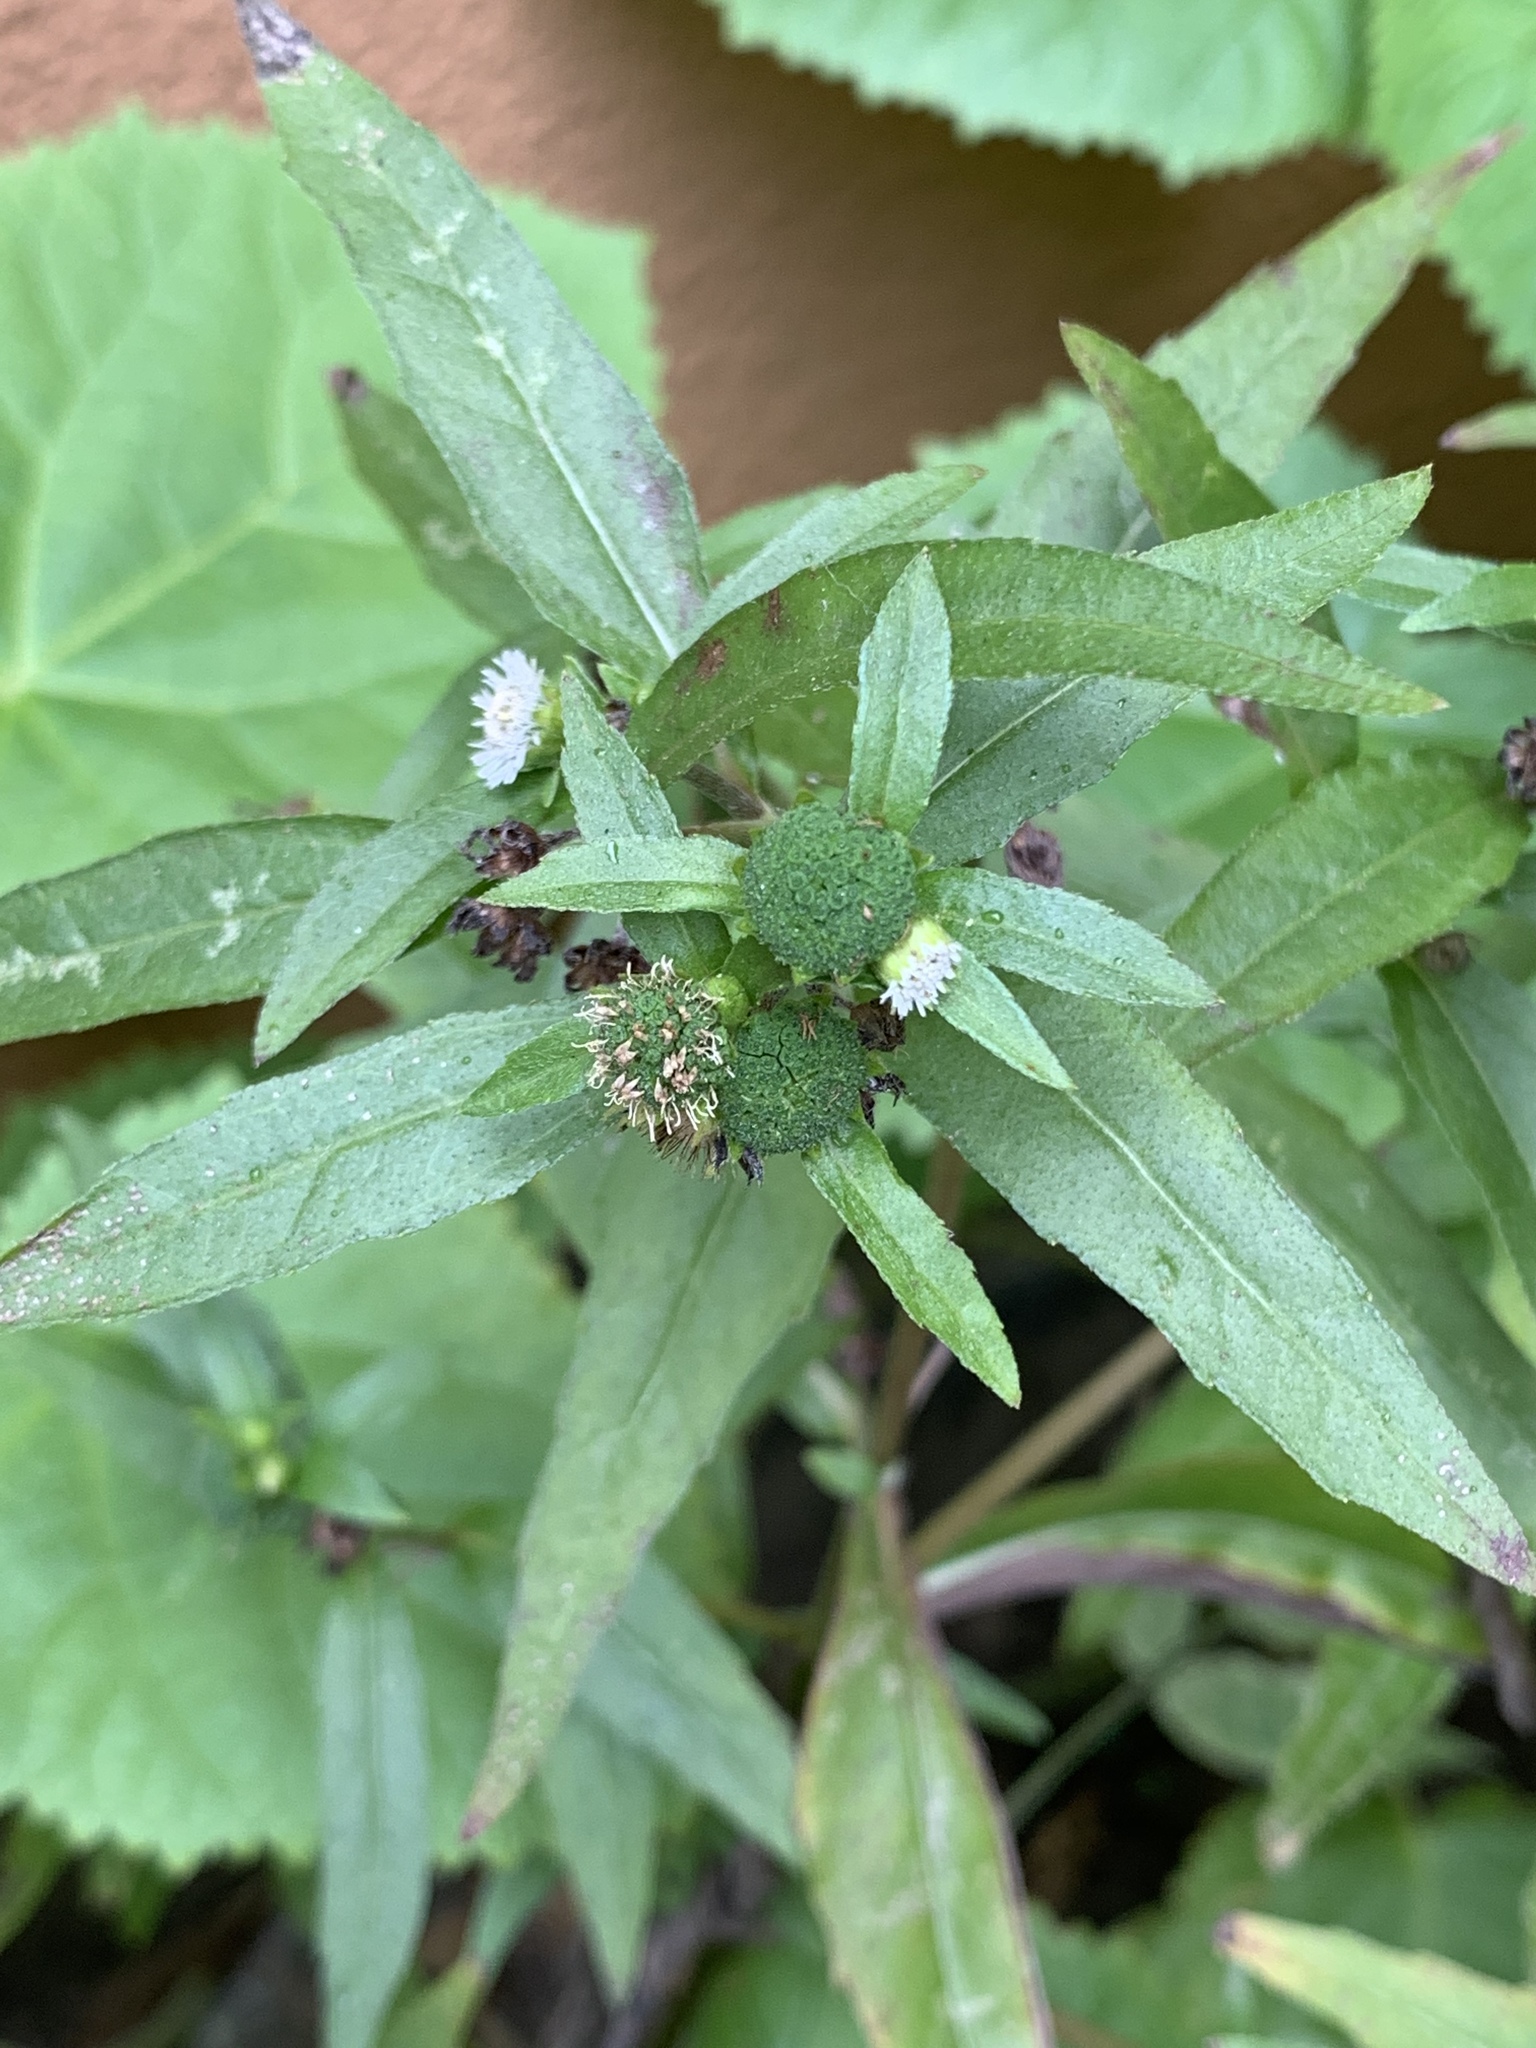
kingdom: Plantae
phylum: Tracheophyta
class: Magnoliopsida
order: Asterales
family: Asteraceae
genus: Eclipta
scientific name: Eclipta prostrata
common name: False daisy
